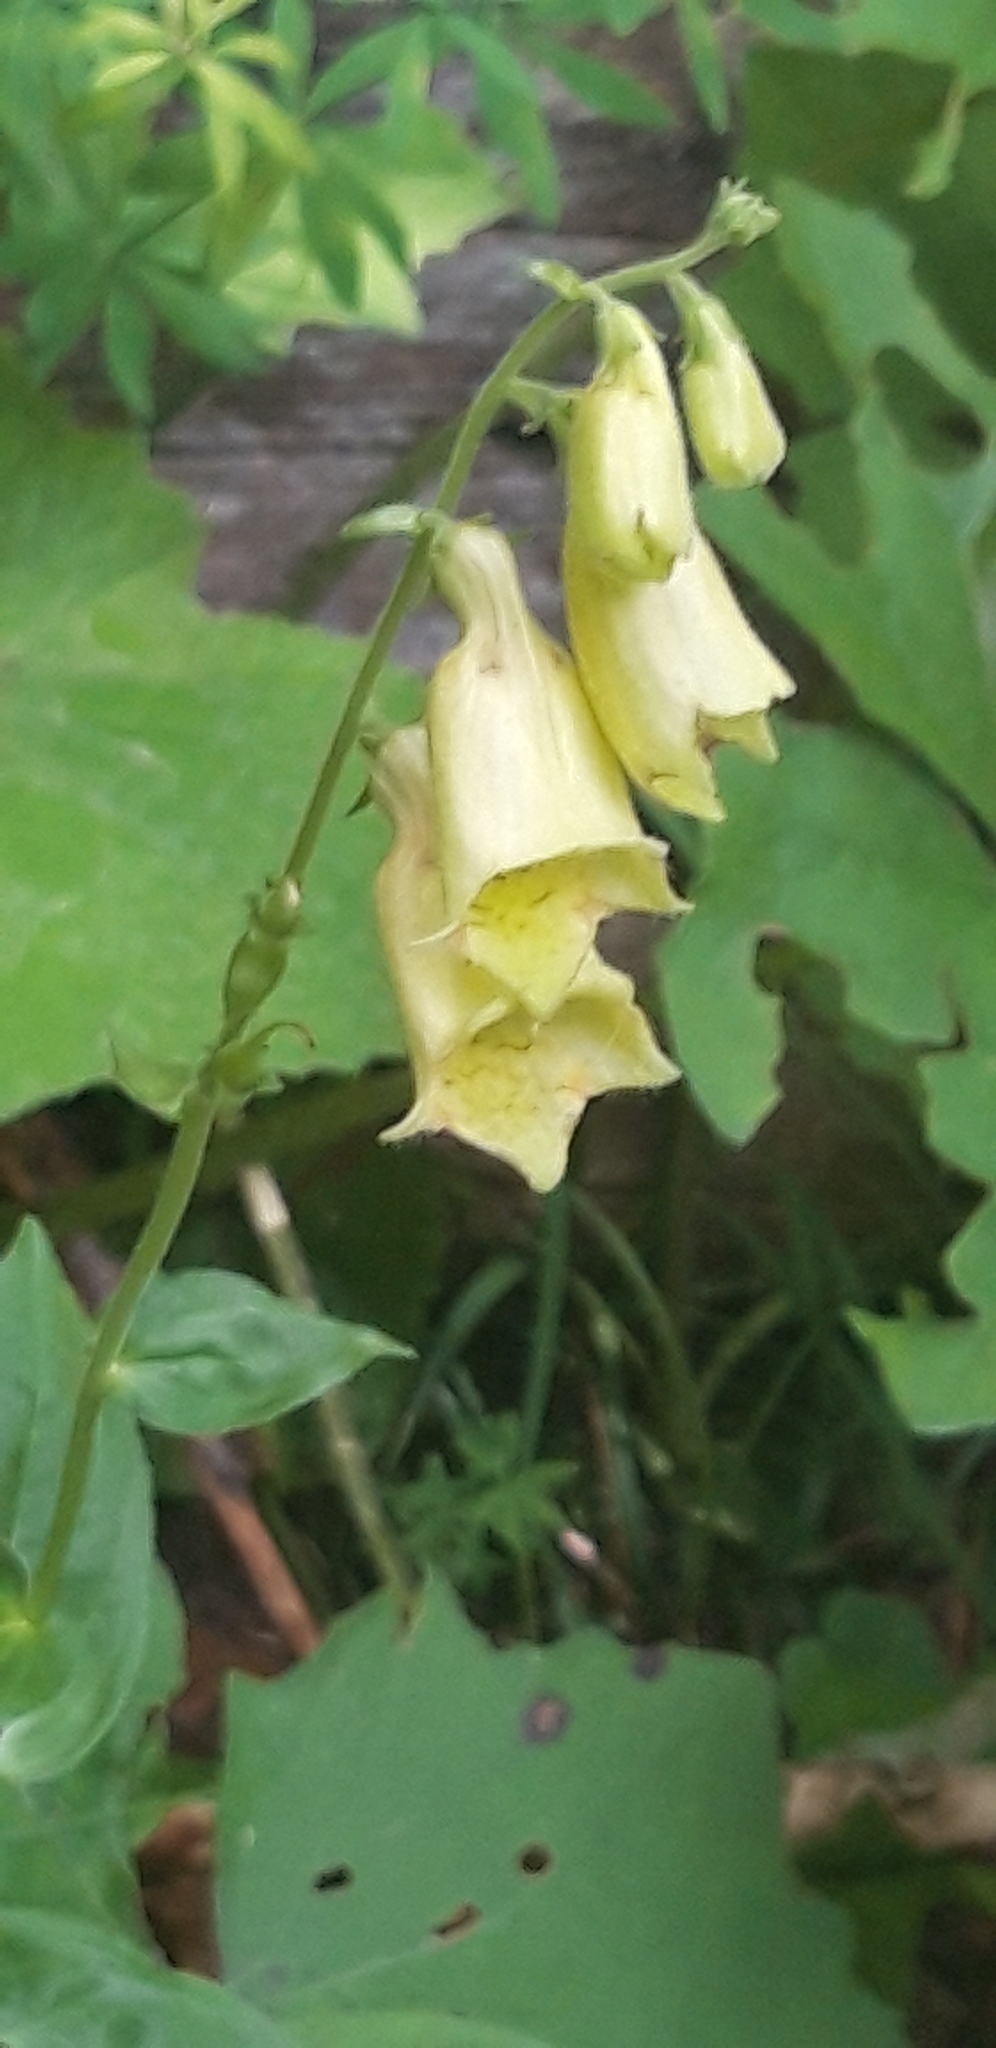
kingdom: Plantae
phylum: Tracheophyta
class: Magnoliopsida
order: Lamiales
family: Plantaginaceae
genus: Digitalis
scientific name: Digitalis grandiflora
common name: Yellow foxglove
